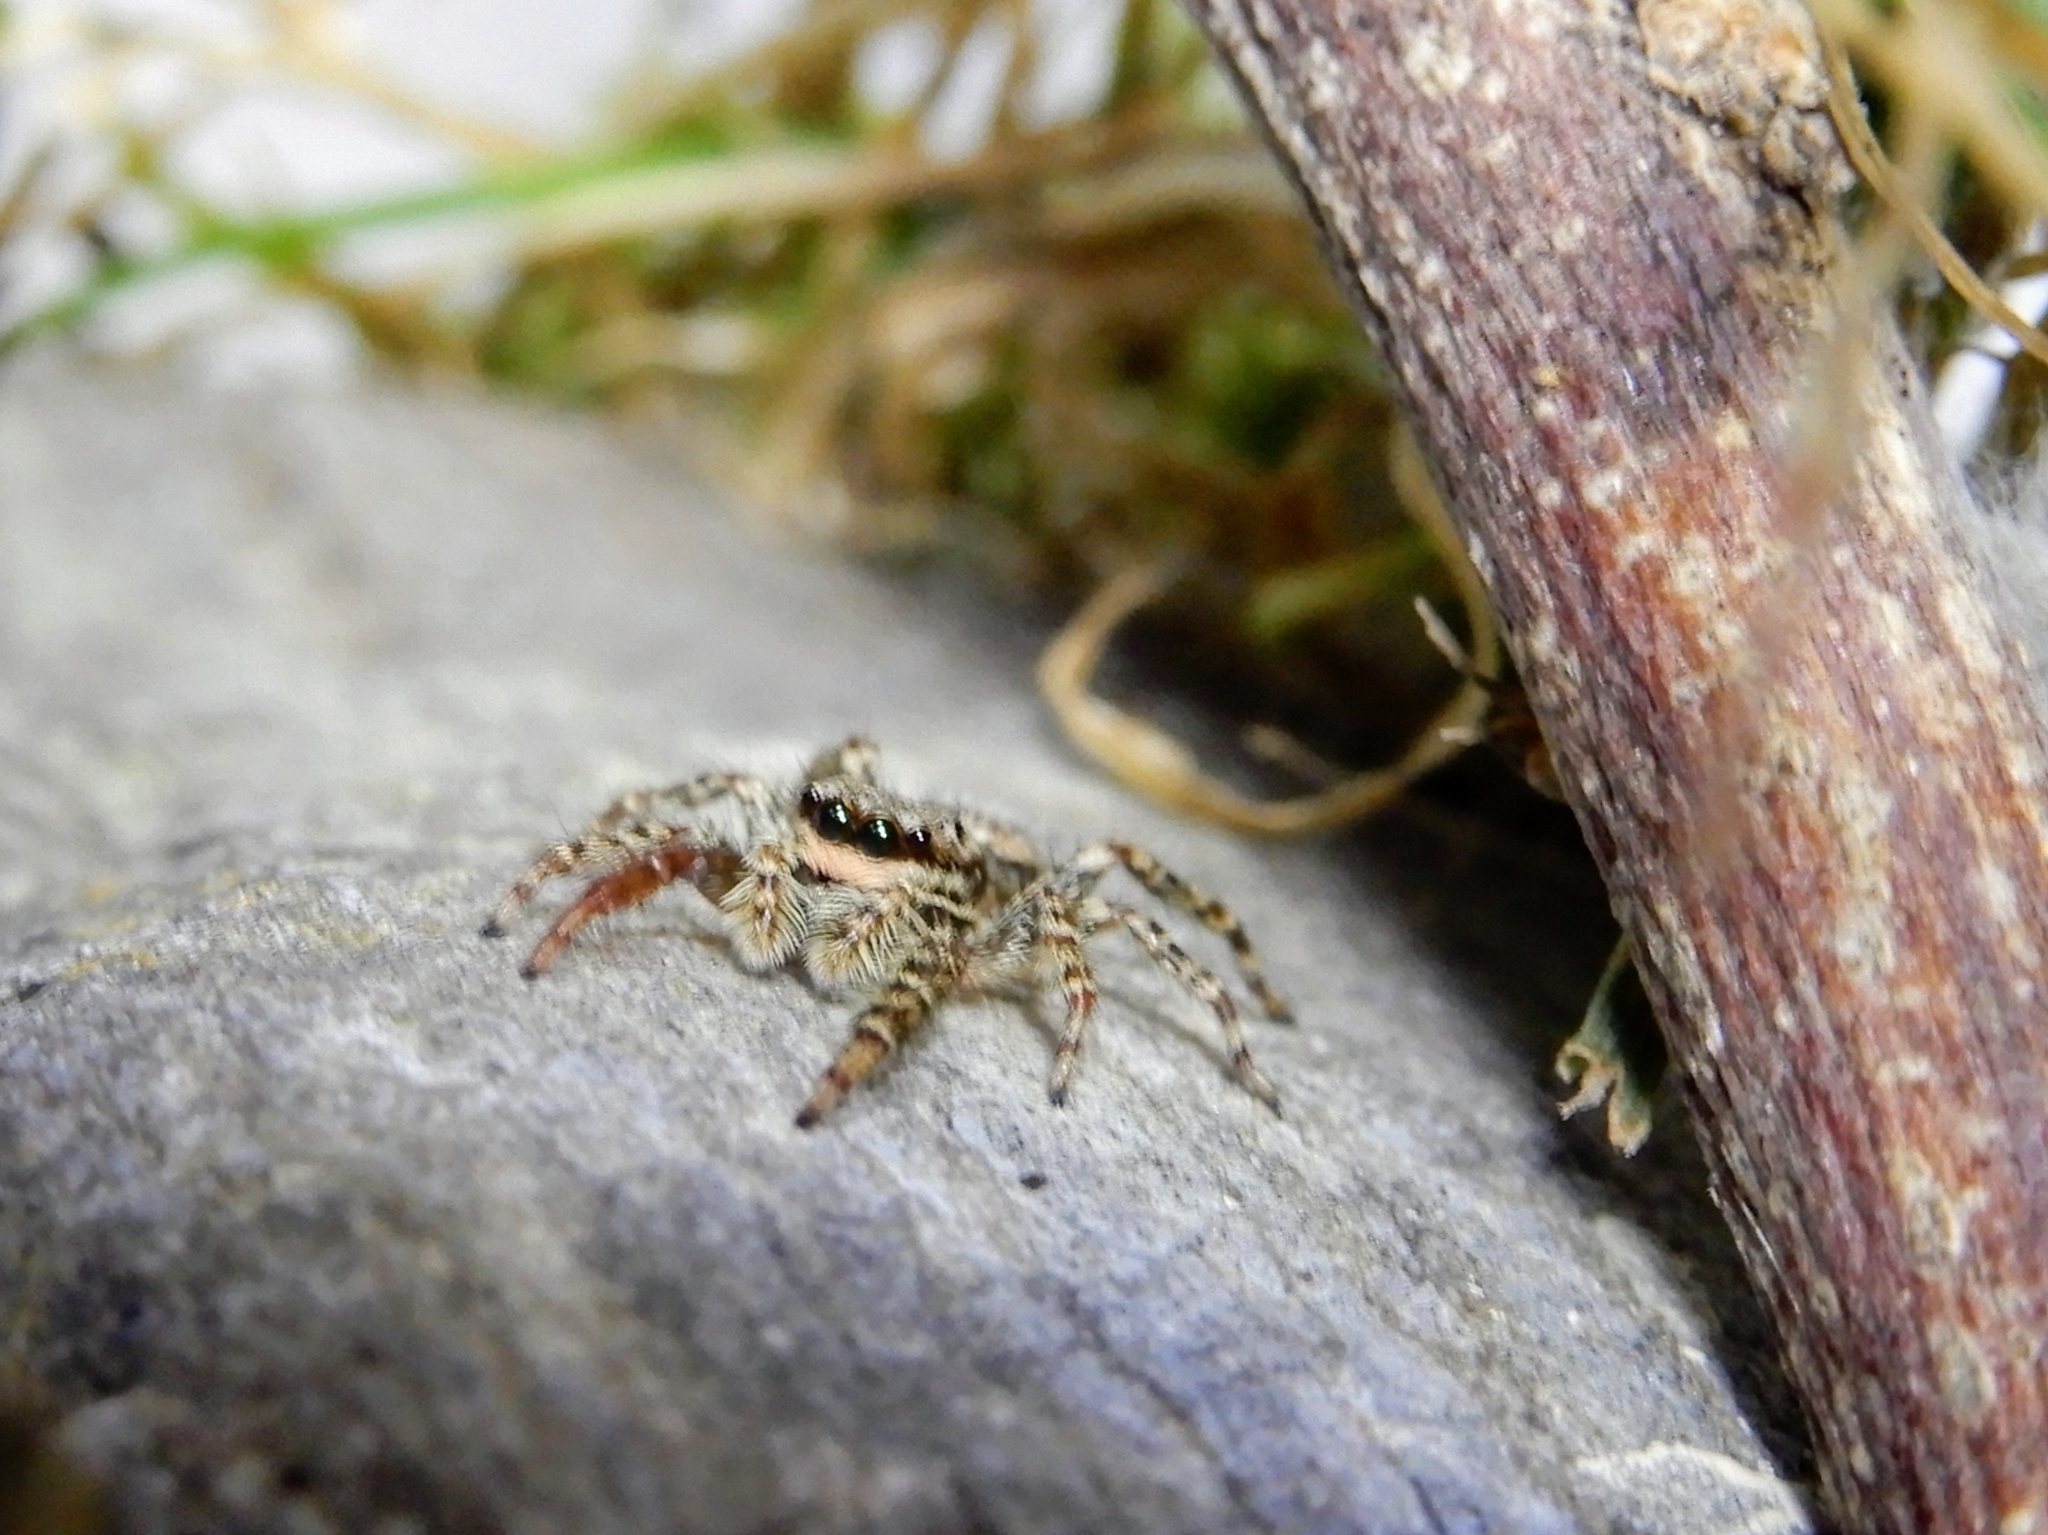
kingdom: Animalia
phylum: Arthropoda
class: Arachnida
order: Araneae
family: Salticidae
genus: Marpissa
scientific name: Marpissa muscosa
